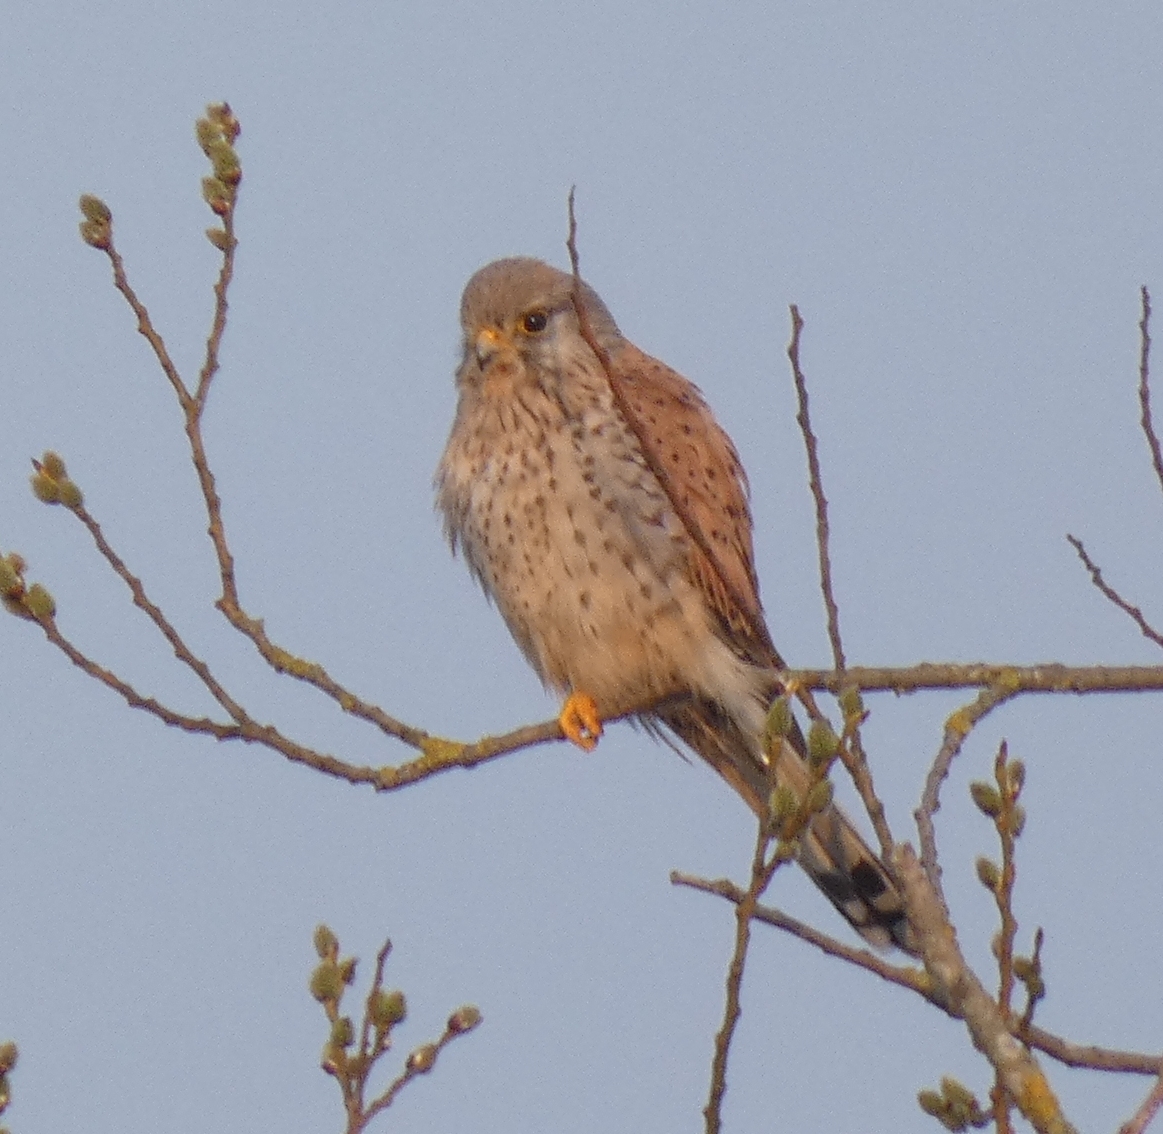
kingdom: Animalia
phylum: Chordata
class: Aves
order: Falconiformes
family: Falconidae
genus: Falco
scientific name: Falco tinnunculus
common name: Common kestrel
